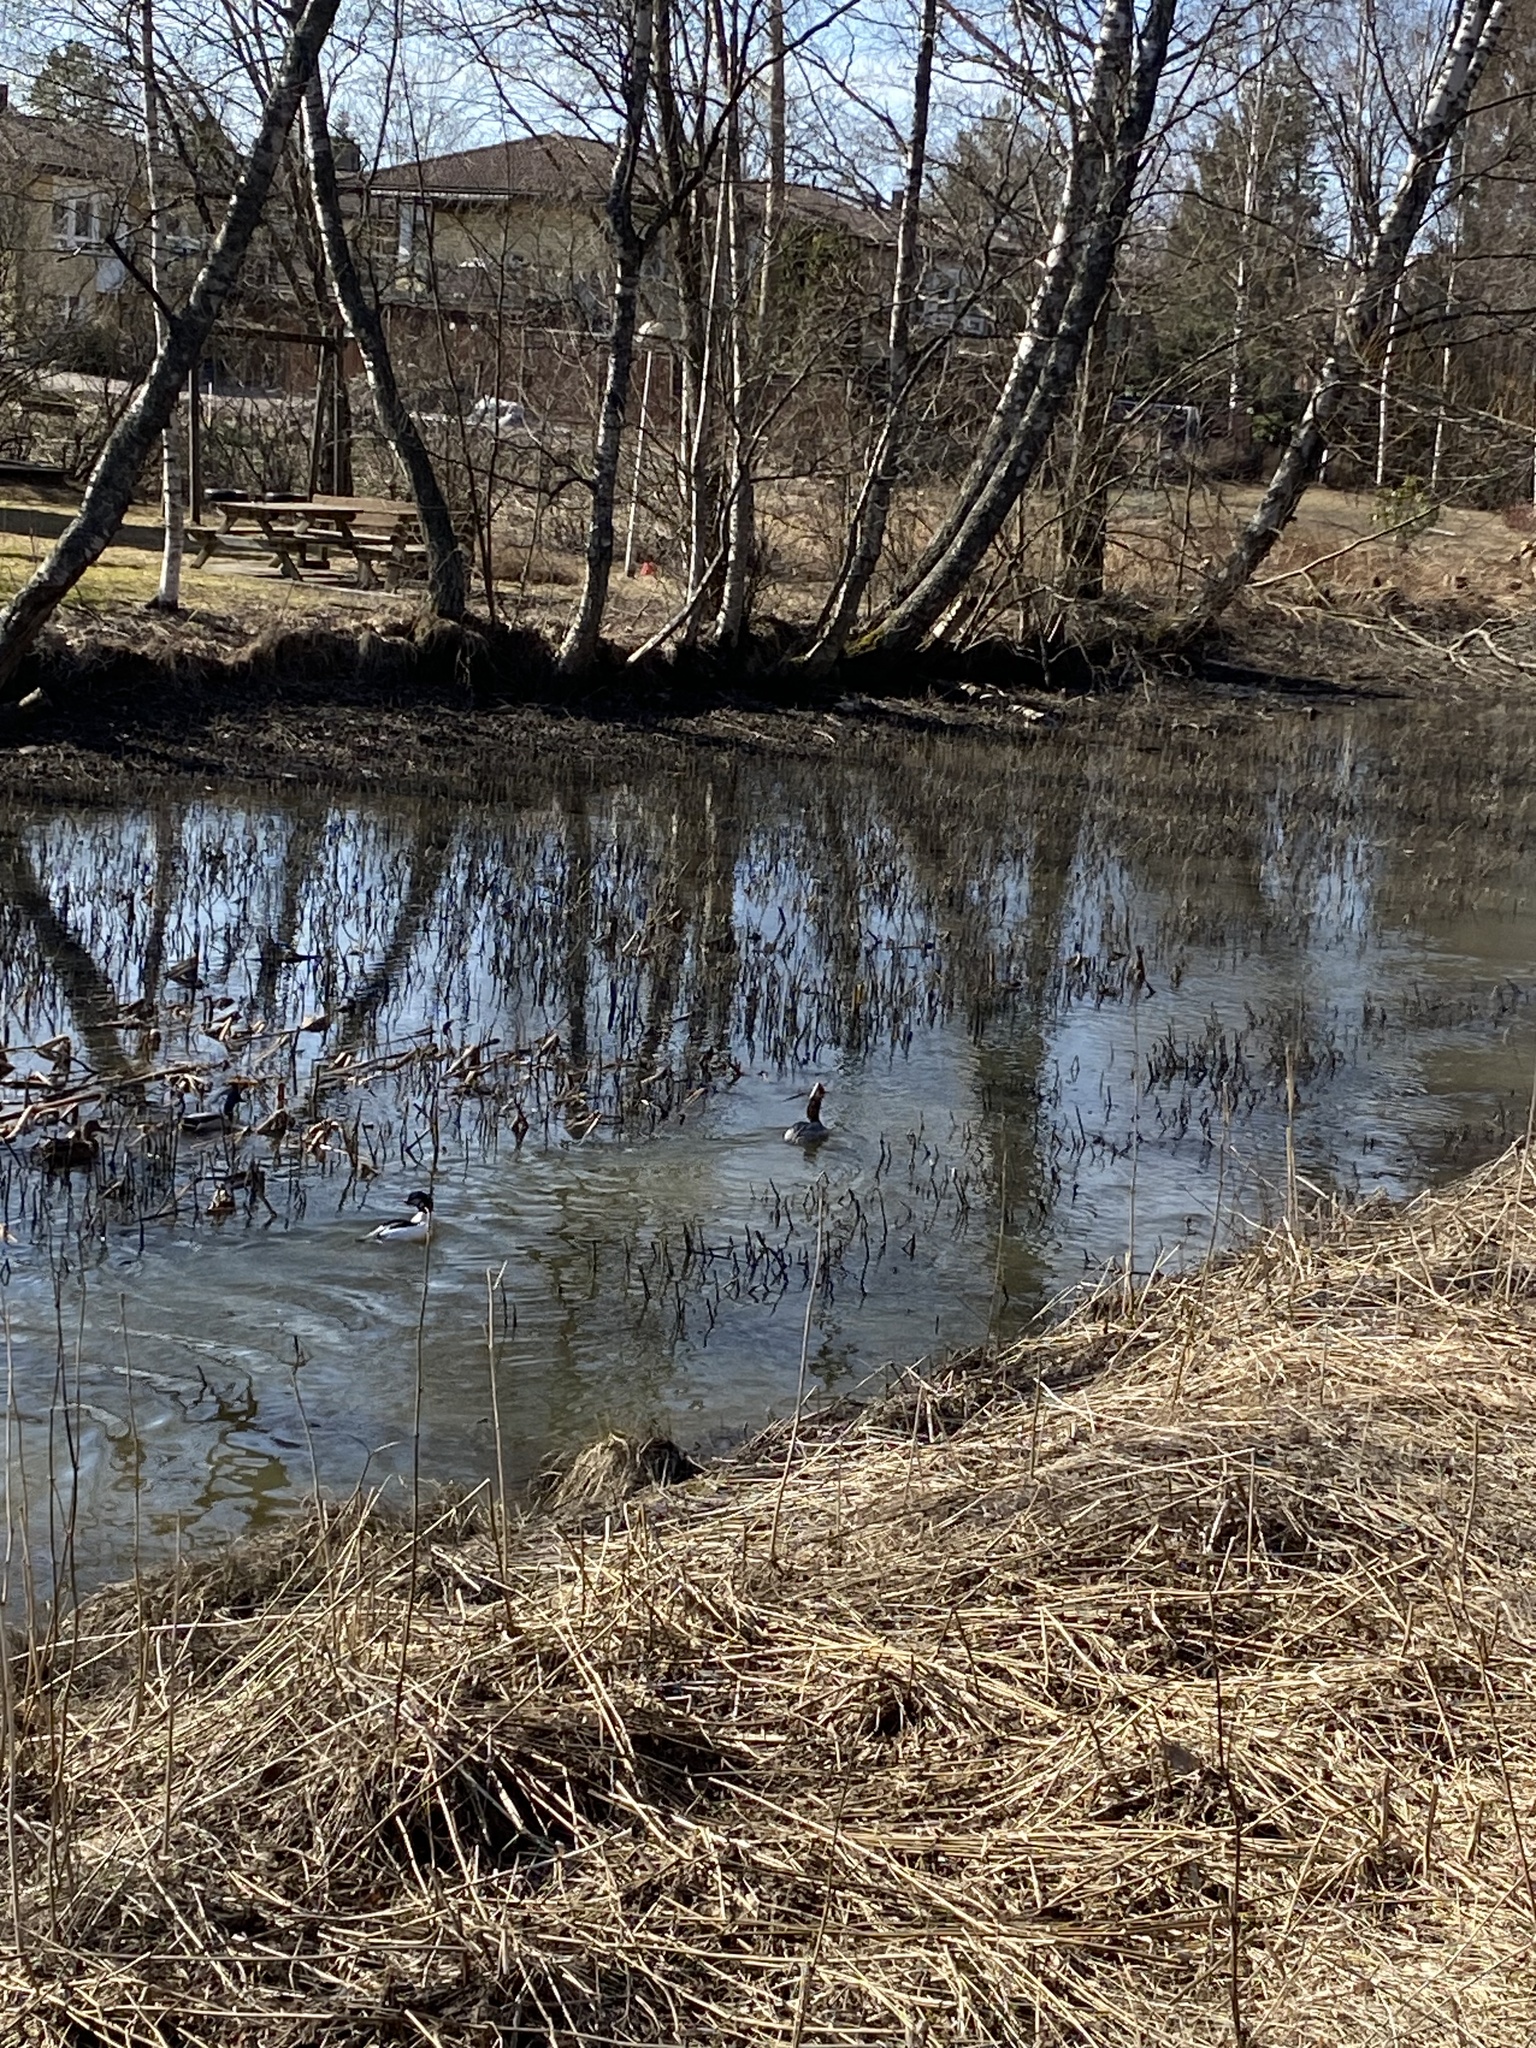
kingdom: Animalia
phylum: Chordata
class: Aves
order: Anseriformes
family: Anatidae
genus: Mergus
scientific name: Mergus merganser
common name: Common merganser
